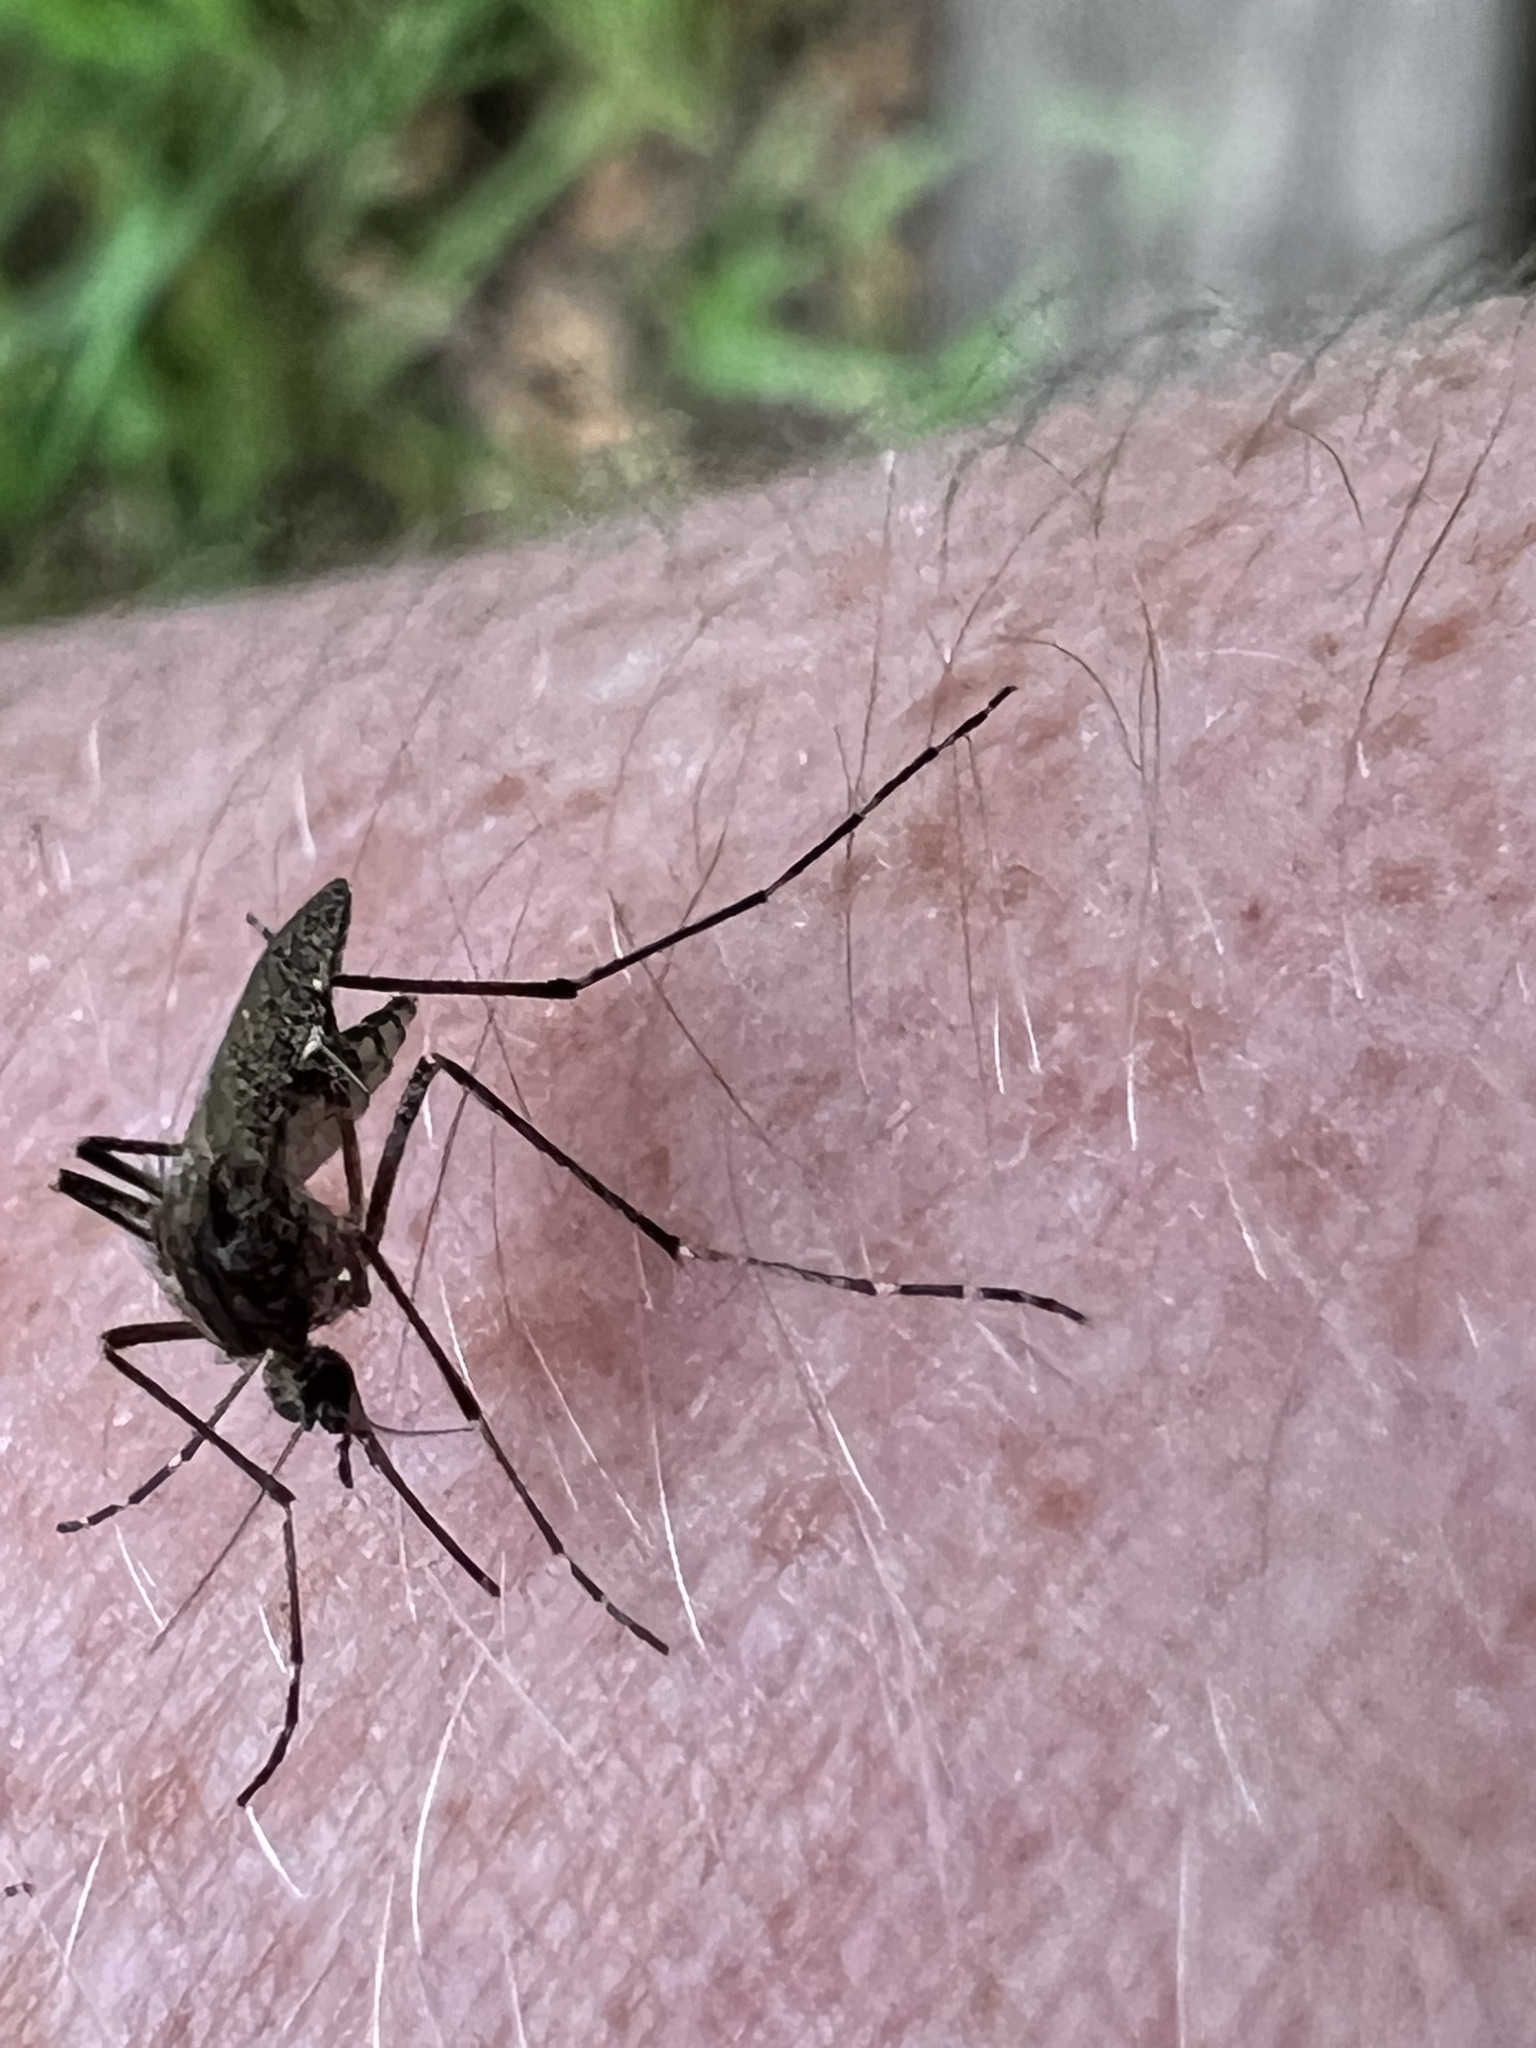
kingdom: Animalia
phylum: Arthropoda
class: Insecta
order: Diptera
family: Culicidae
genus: Aedes
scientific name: Aedes squamiger
